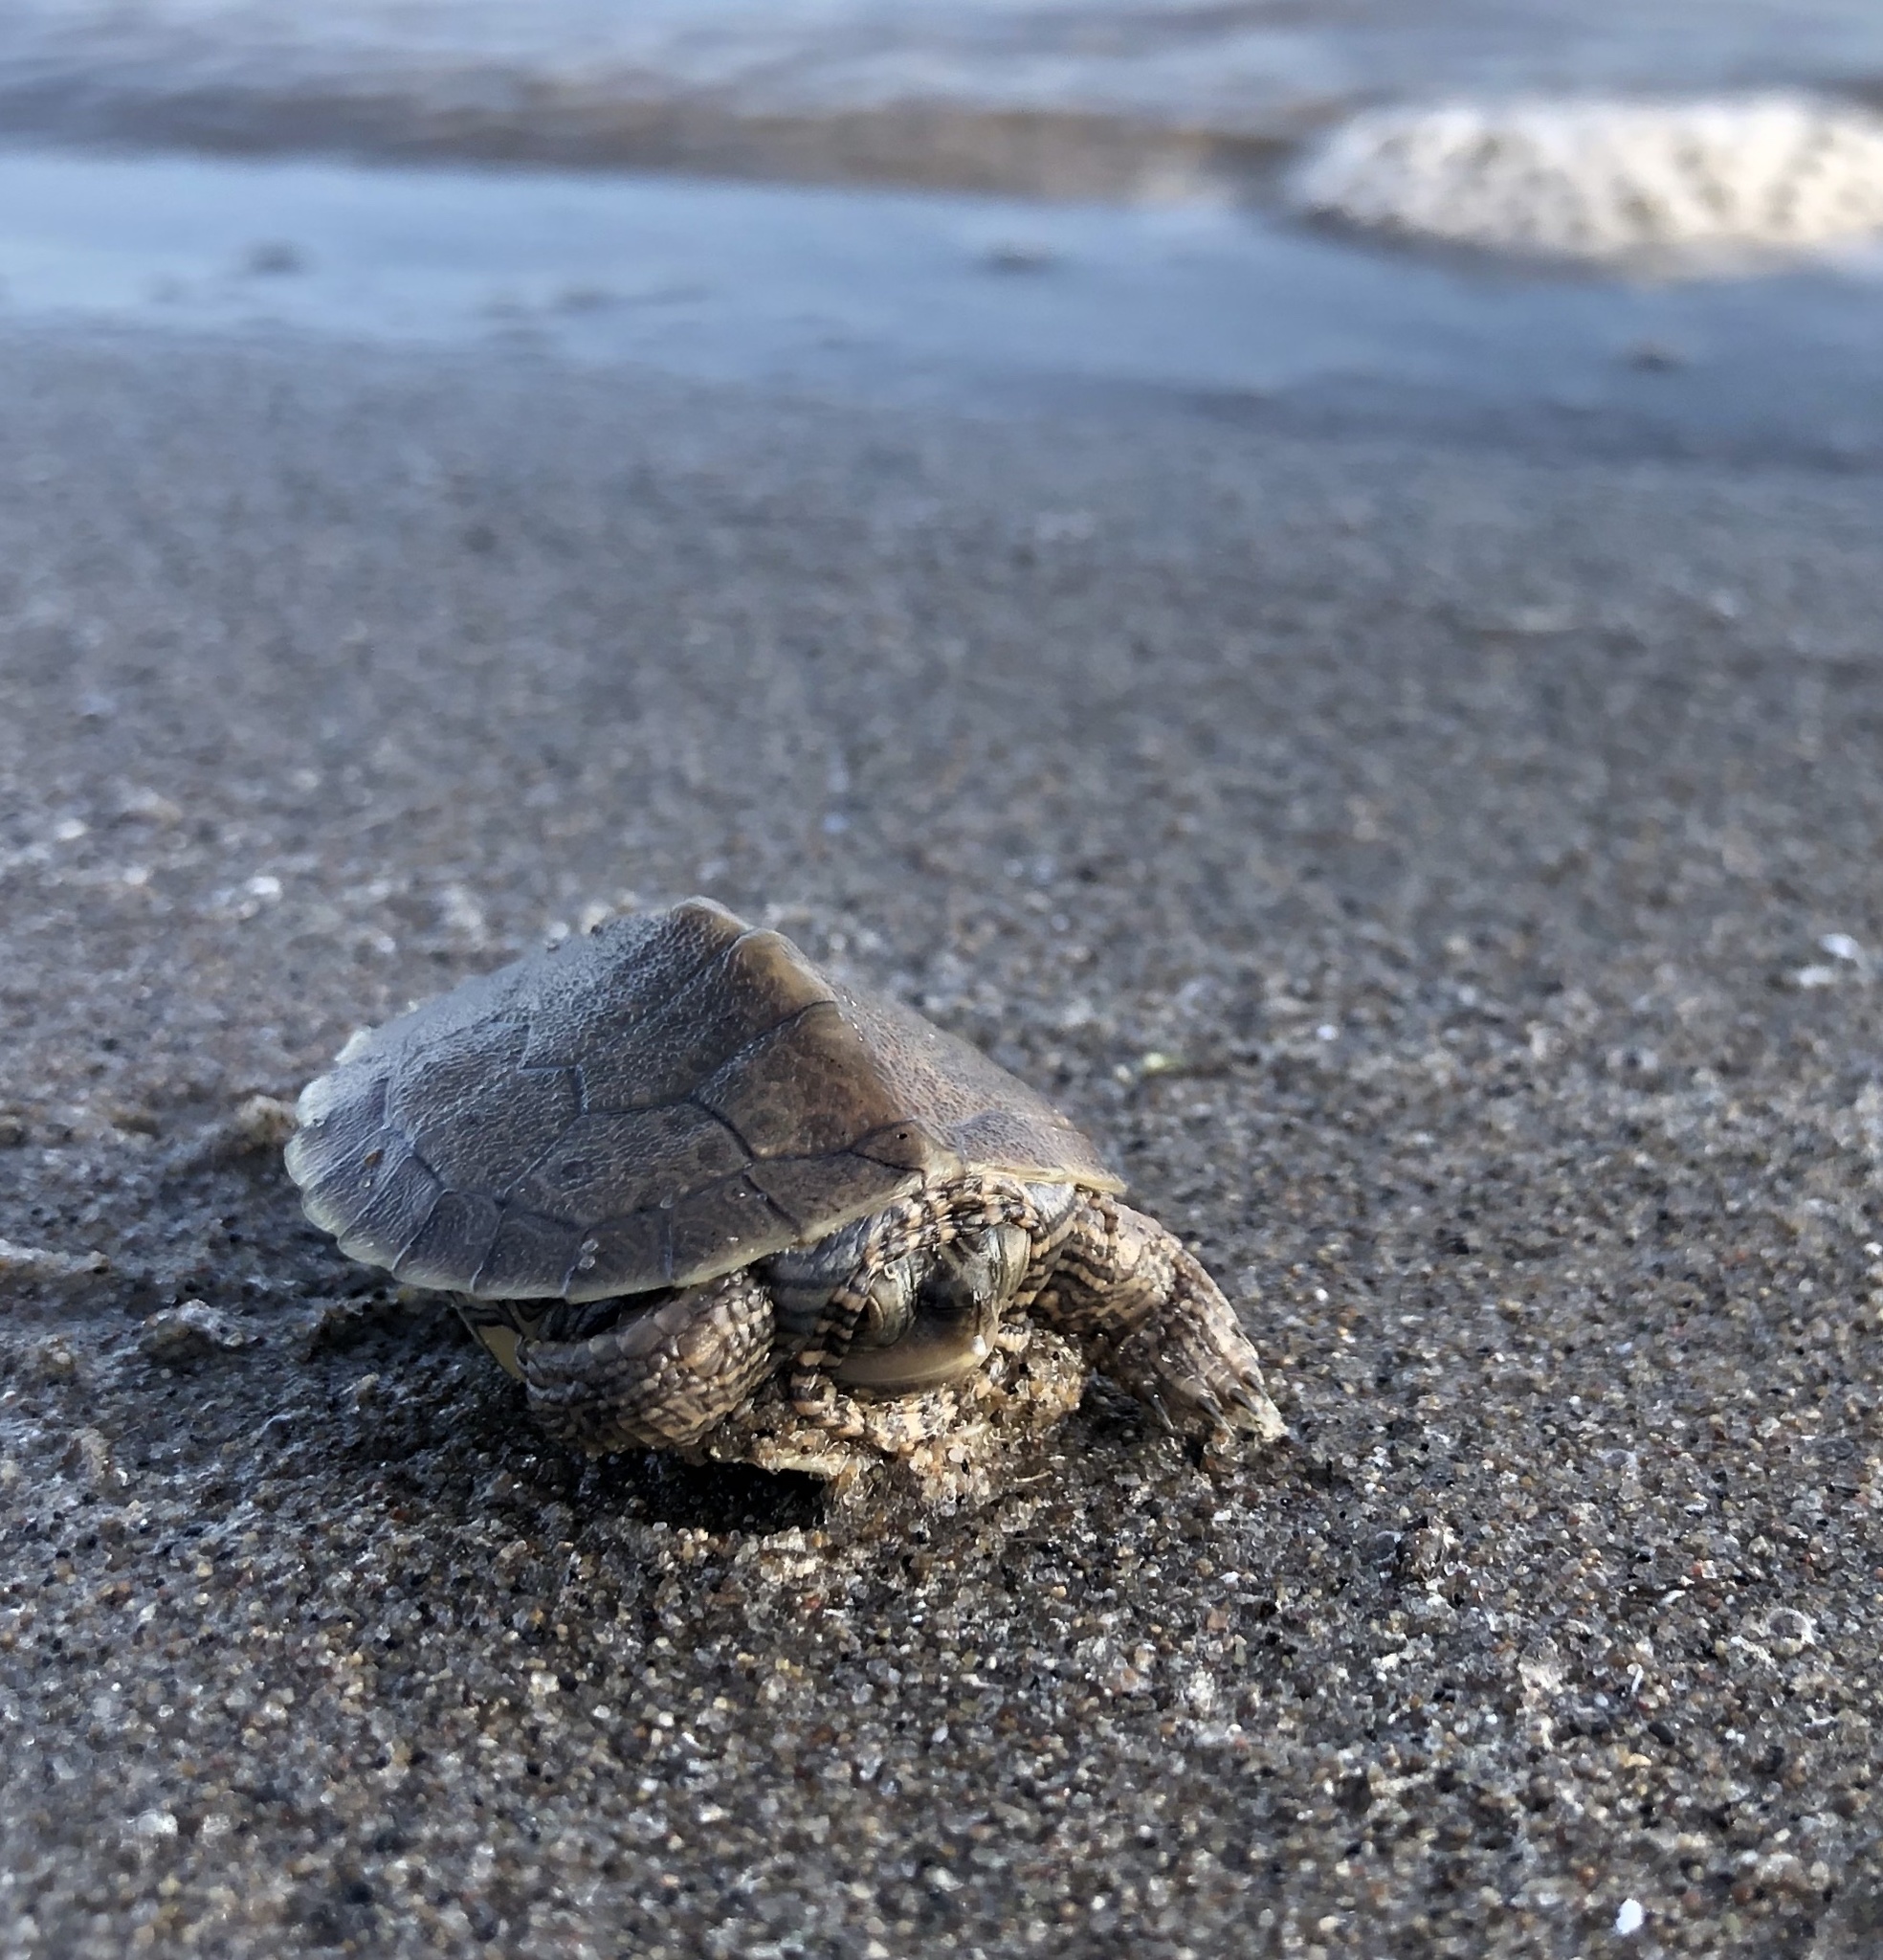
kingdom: Animalia
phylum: Chordata
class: Testudines
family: Emydidae
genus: Graptemys
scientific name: Graptemys geographica
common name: Common map turtle
